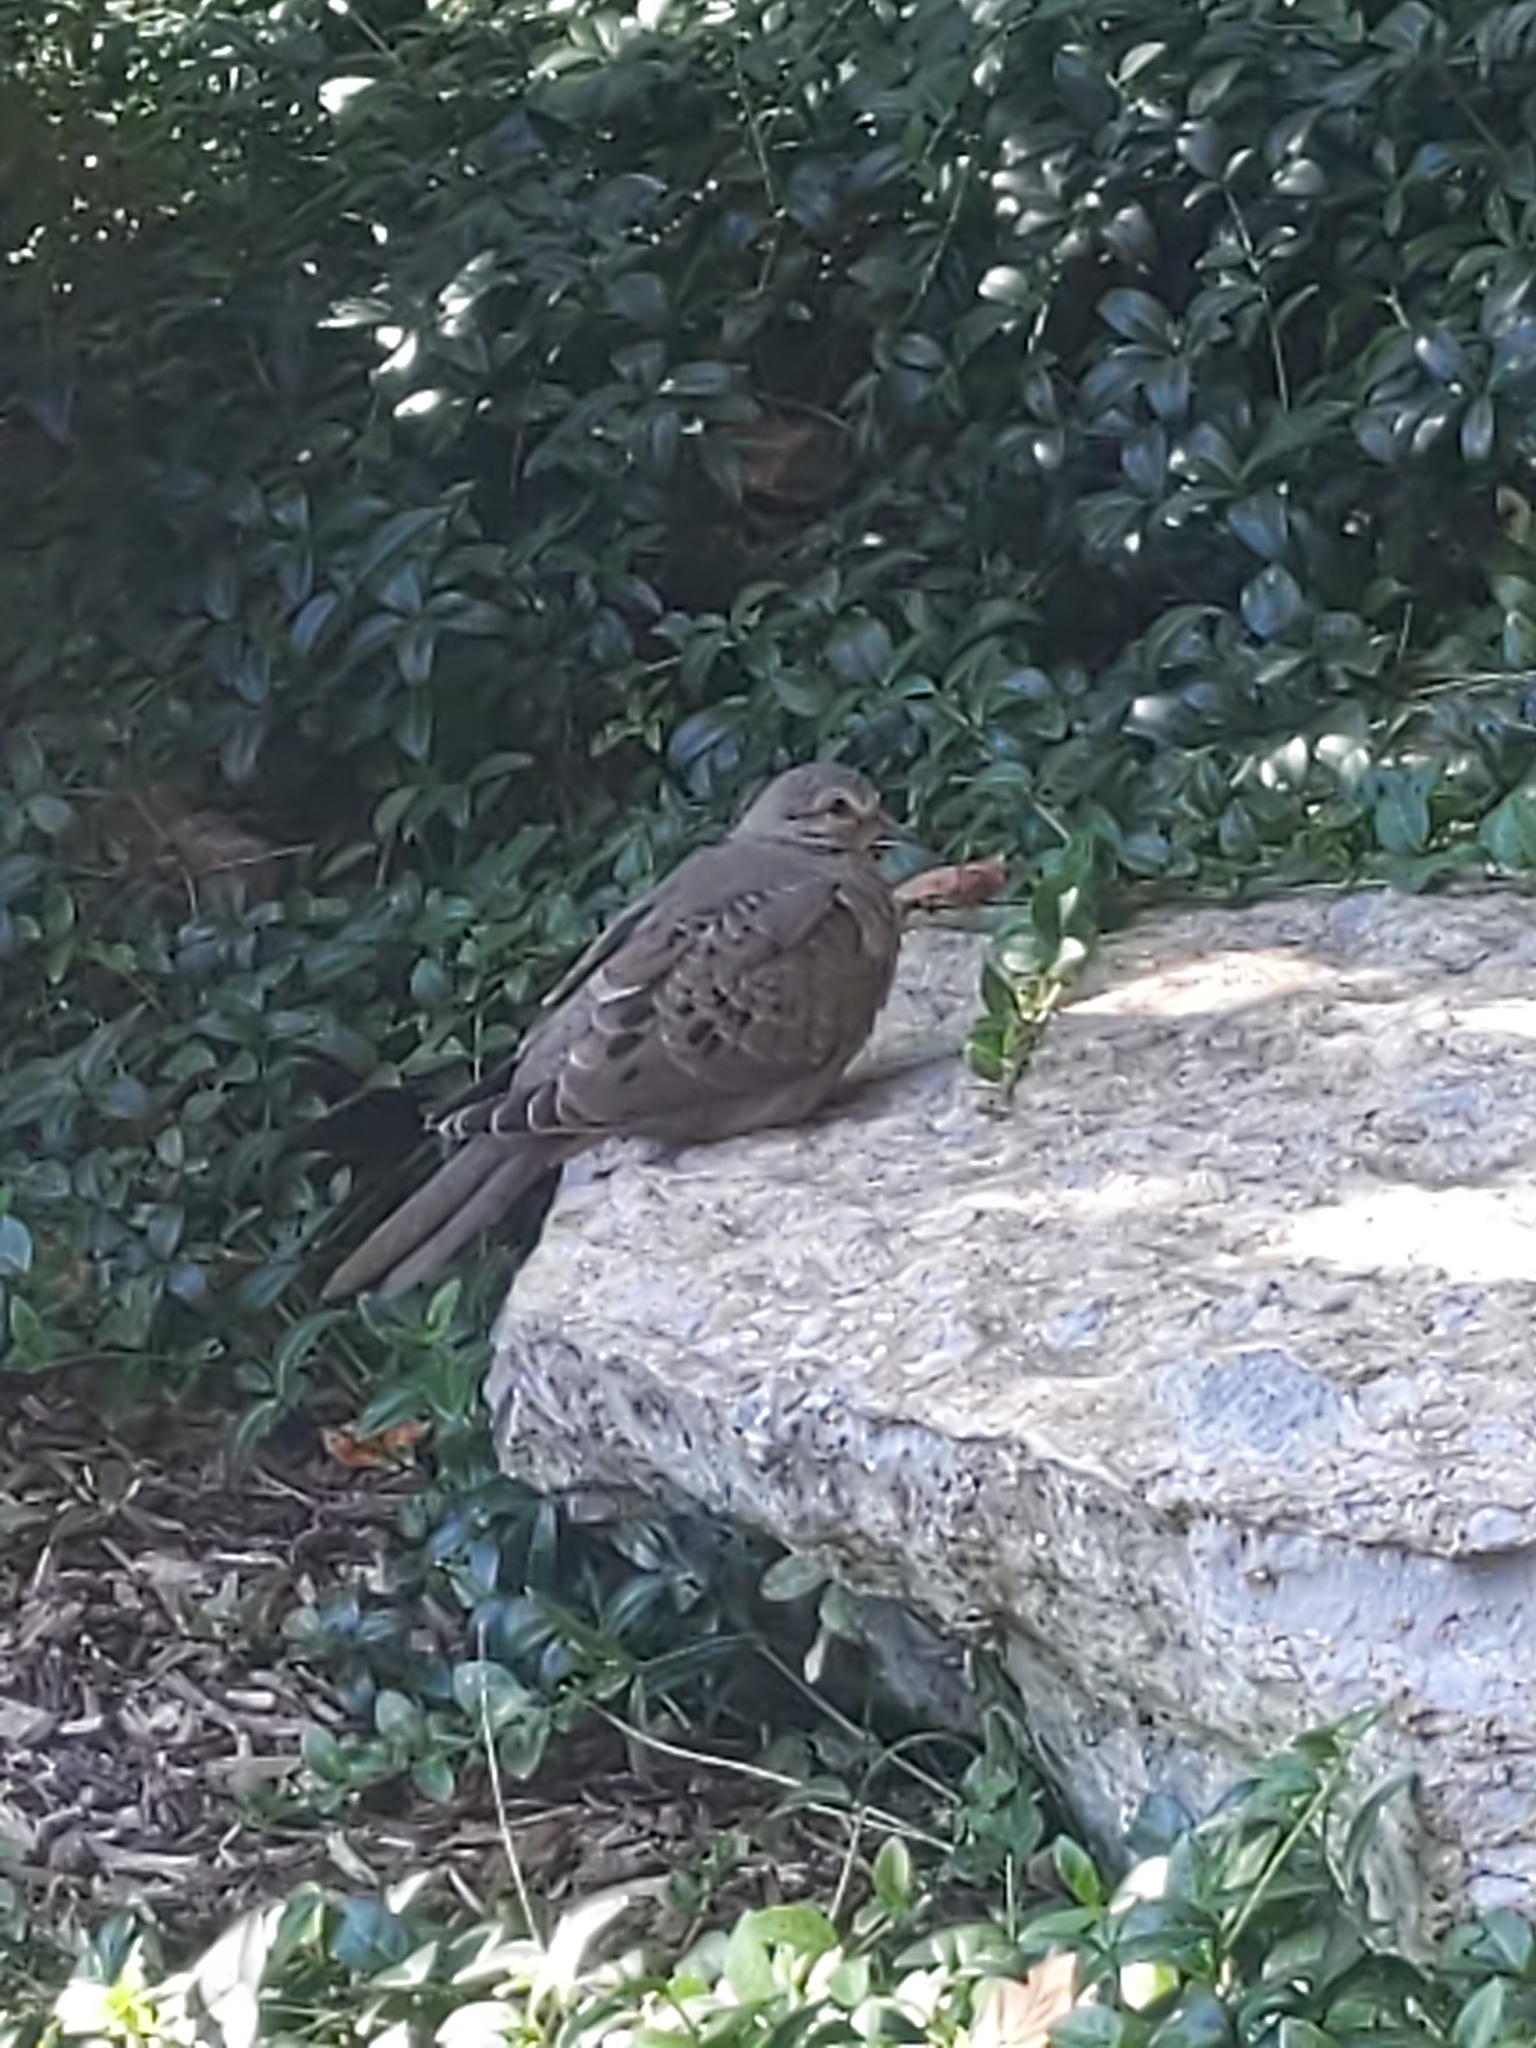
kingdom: Animalia
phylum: Chordata
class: Aves
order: Columbiformes
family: Columbidae
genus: Zenaida
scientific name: Zenaida macroura
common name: Mourning dove
